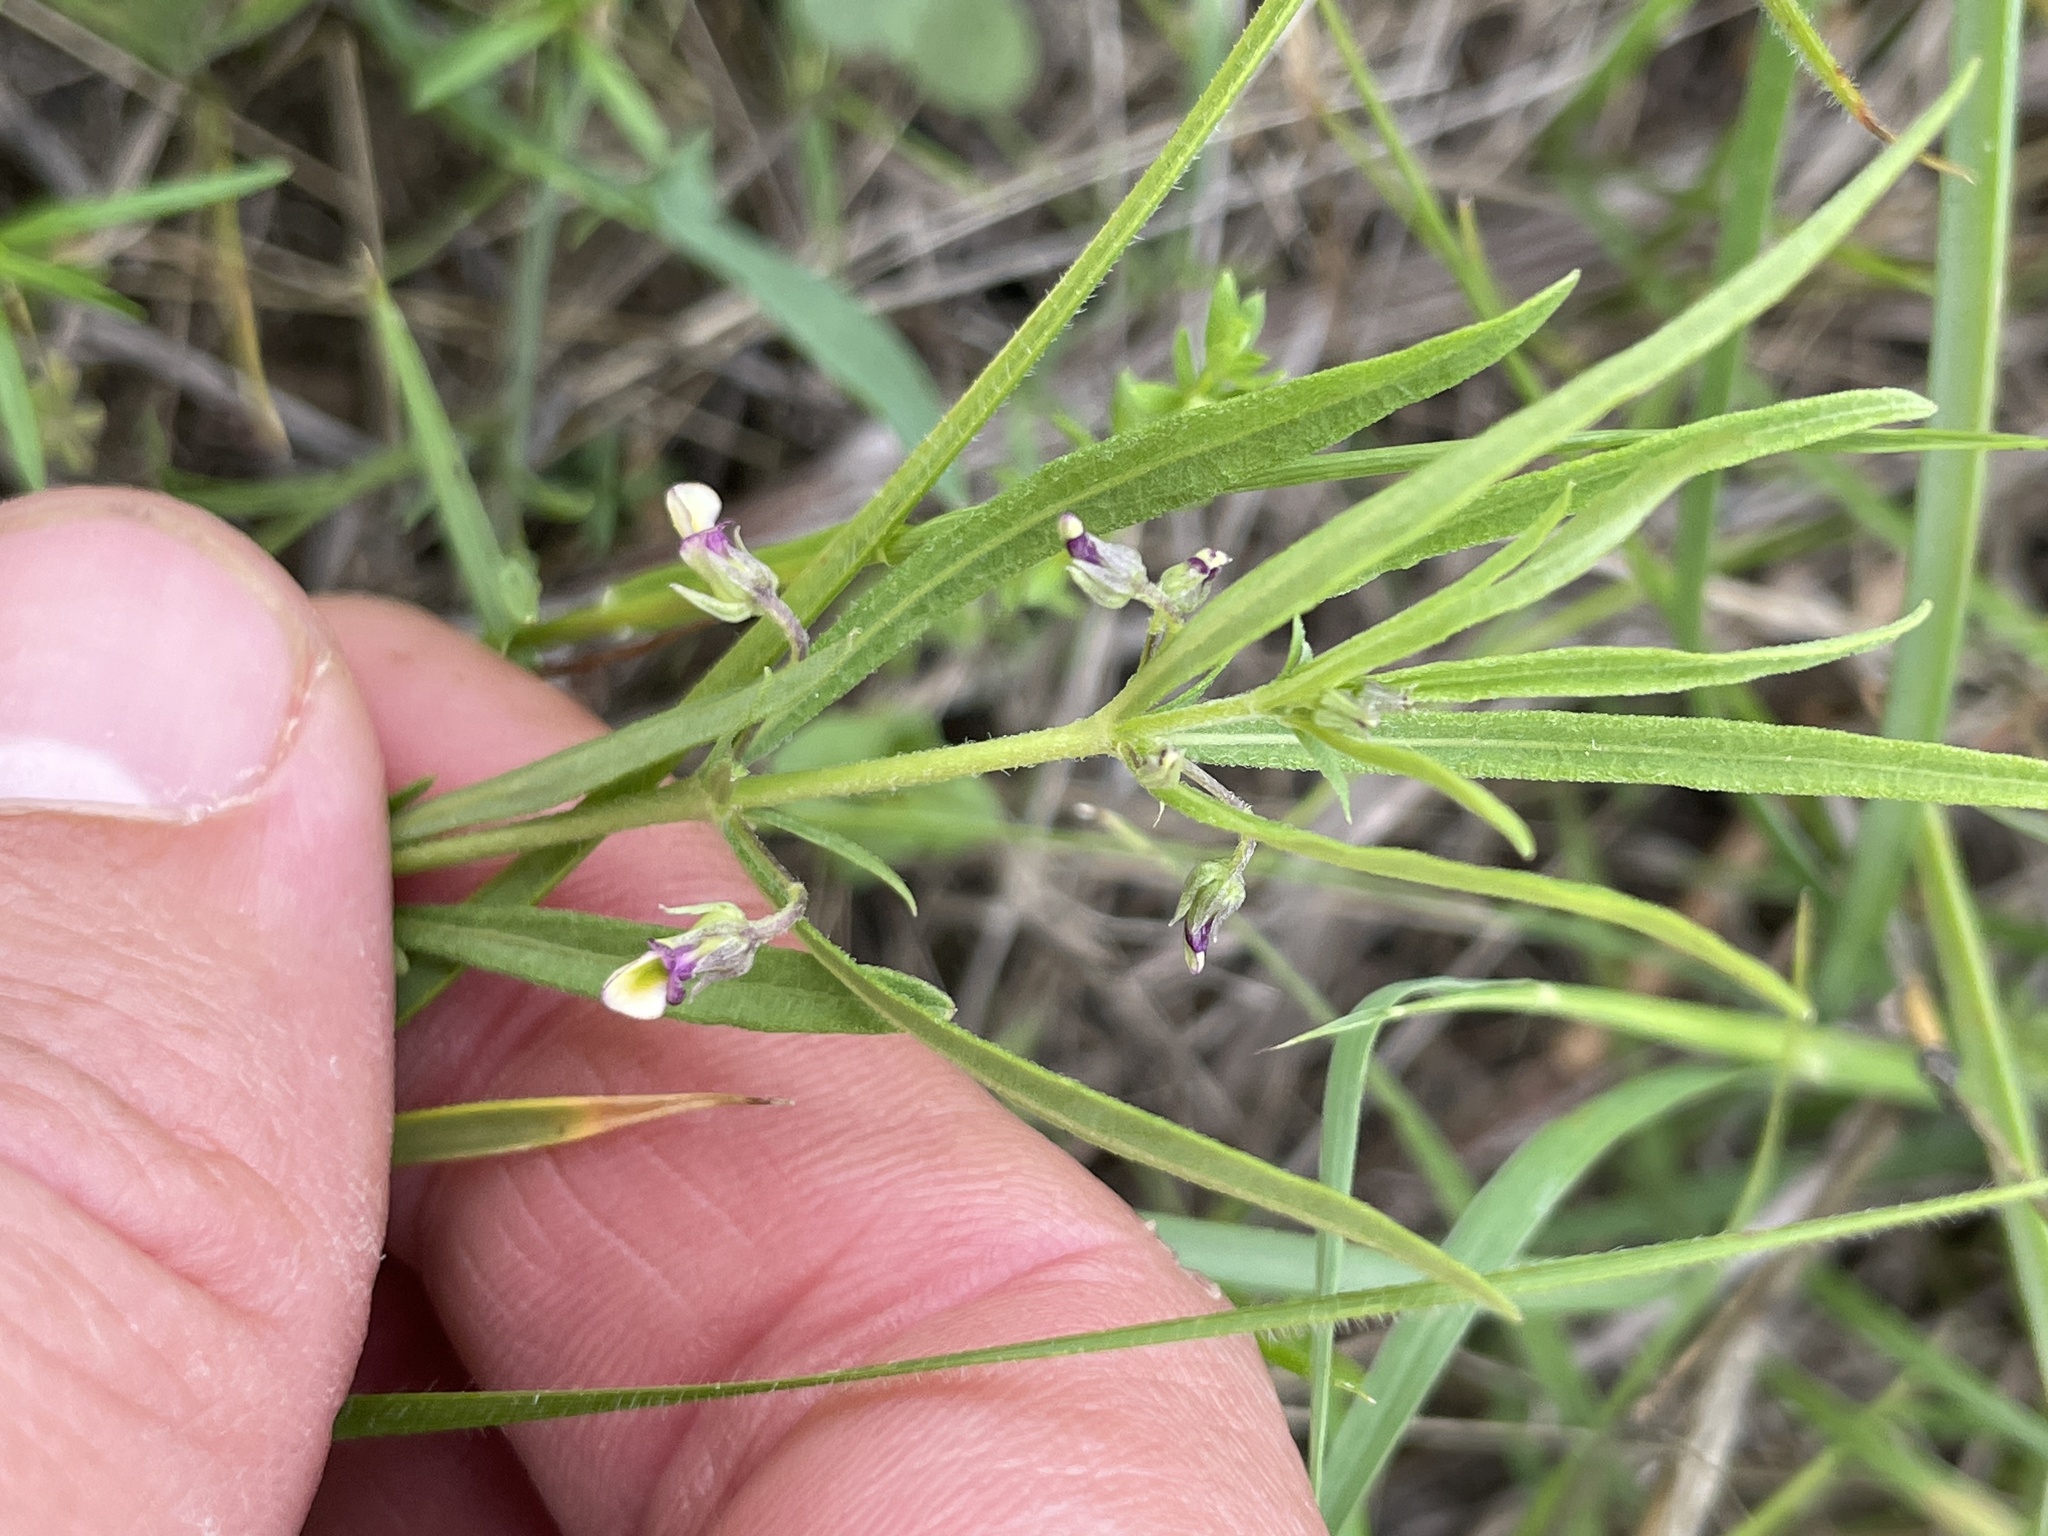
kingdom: Plantae
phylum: Tracheophyta
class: Magnoliopsida
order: Malpighiales
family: Violaceae
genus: Pombalia
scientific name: Pombalia verticillata
